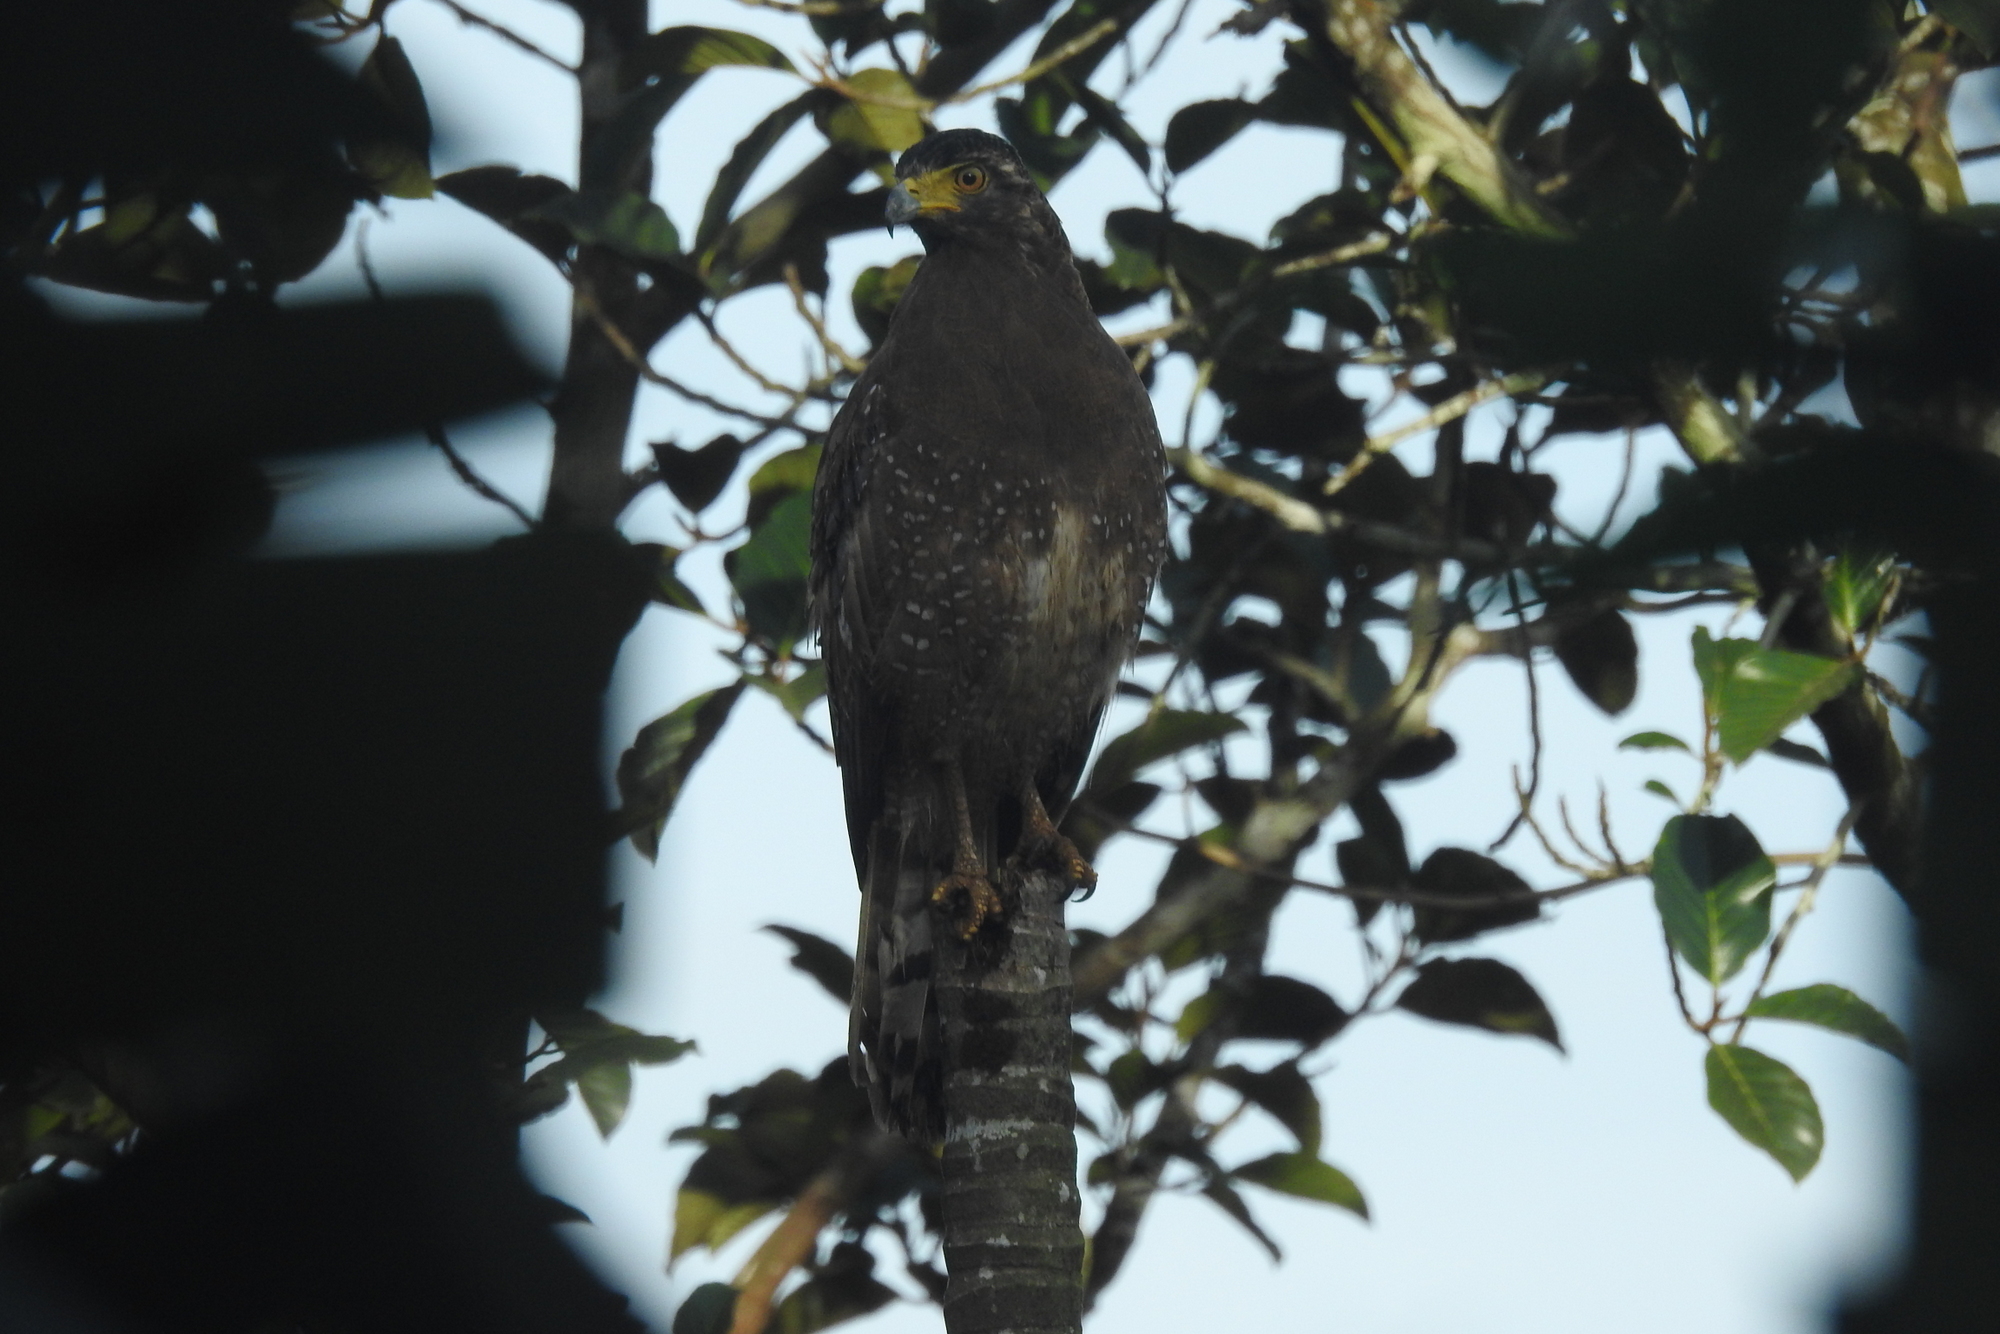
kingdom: Animalia
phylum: Chordata
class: Aves
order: Accipitriformes
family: Accipitridae
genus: Spilornis
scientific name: Spilornis cheela
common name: Crested serpent eagle
